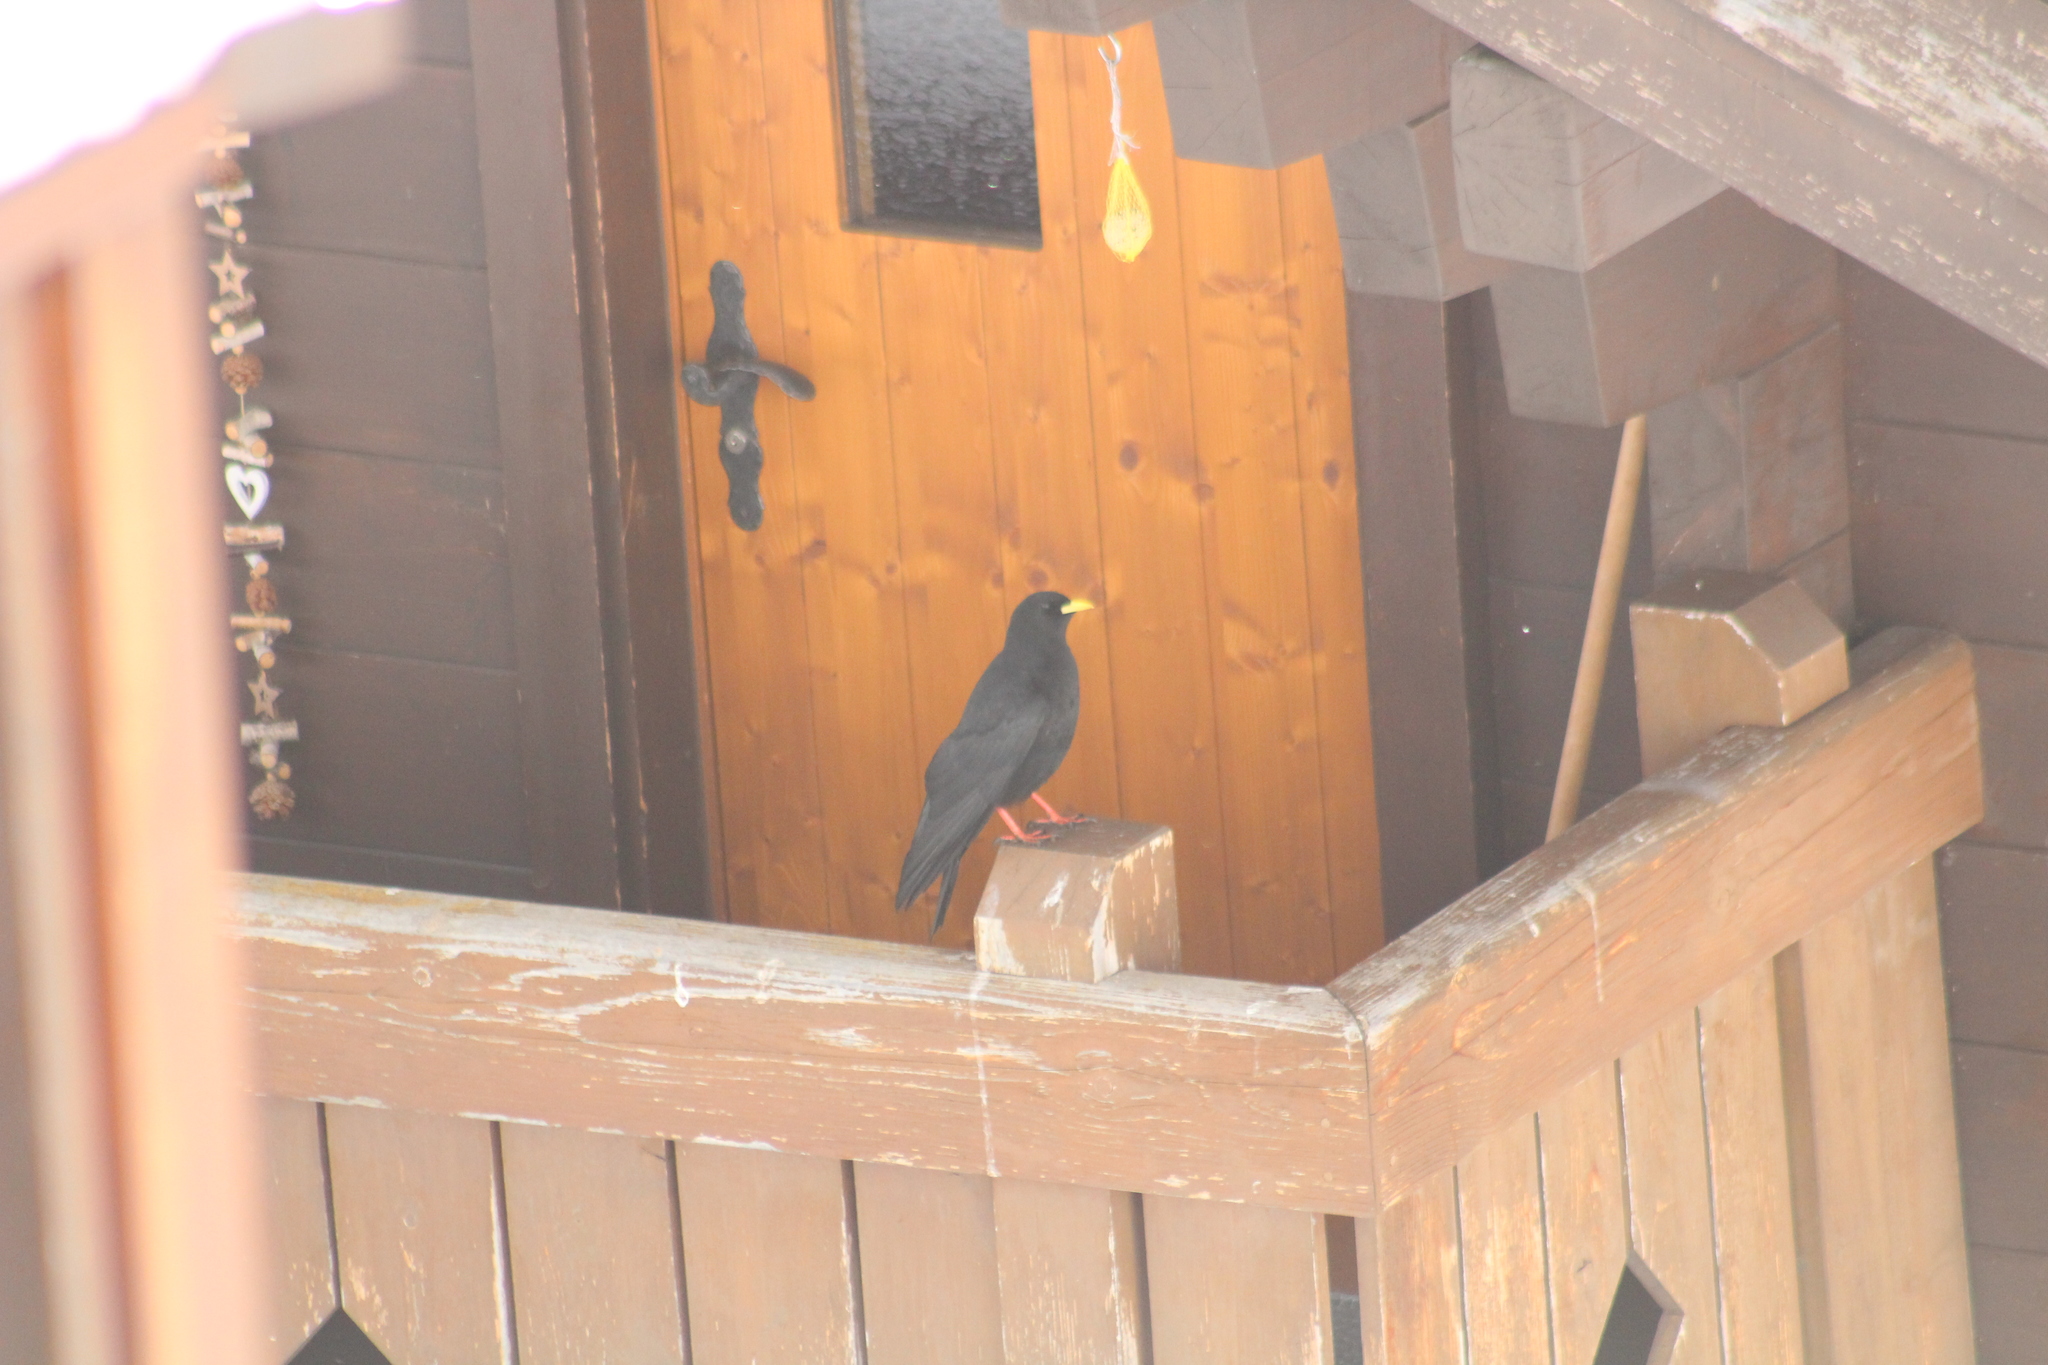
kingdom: Animalia
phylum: Chordata
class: Aves
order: Passeriformes
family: Corvidae
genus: Pyrrhocorax
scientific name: Pyrrhocorax graculus
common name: Alpine chough
